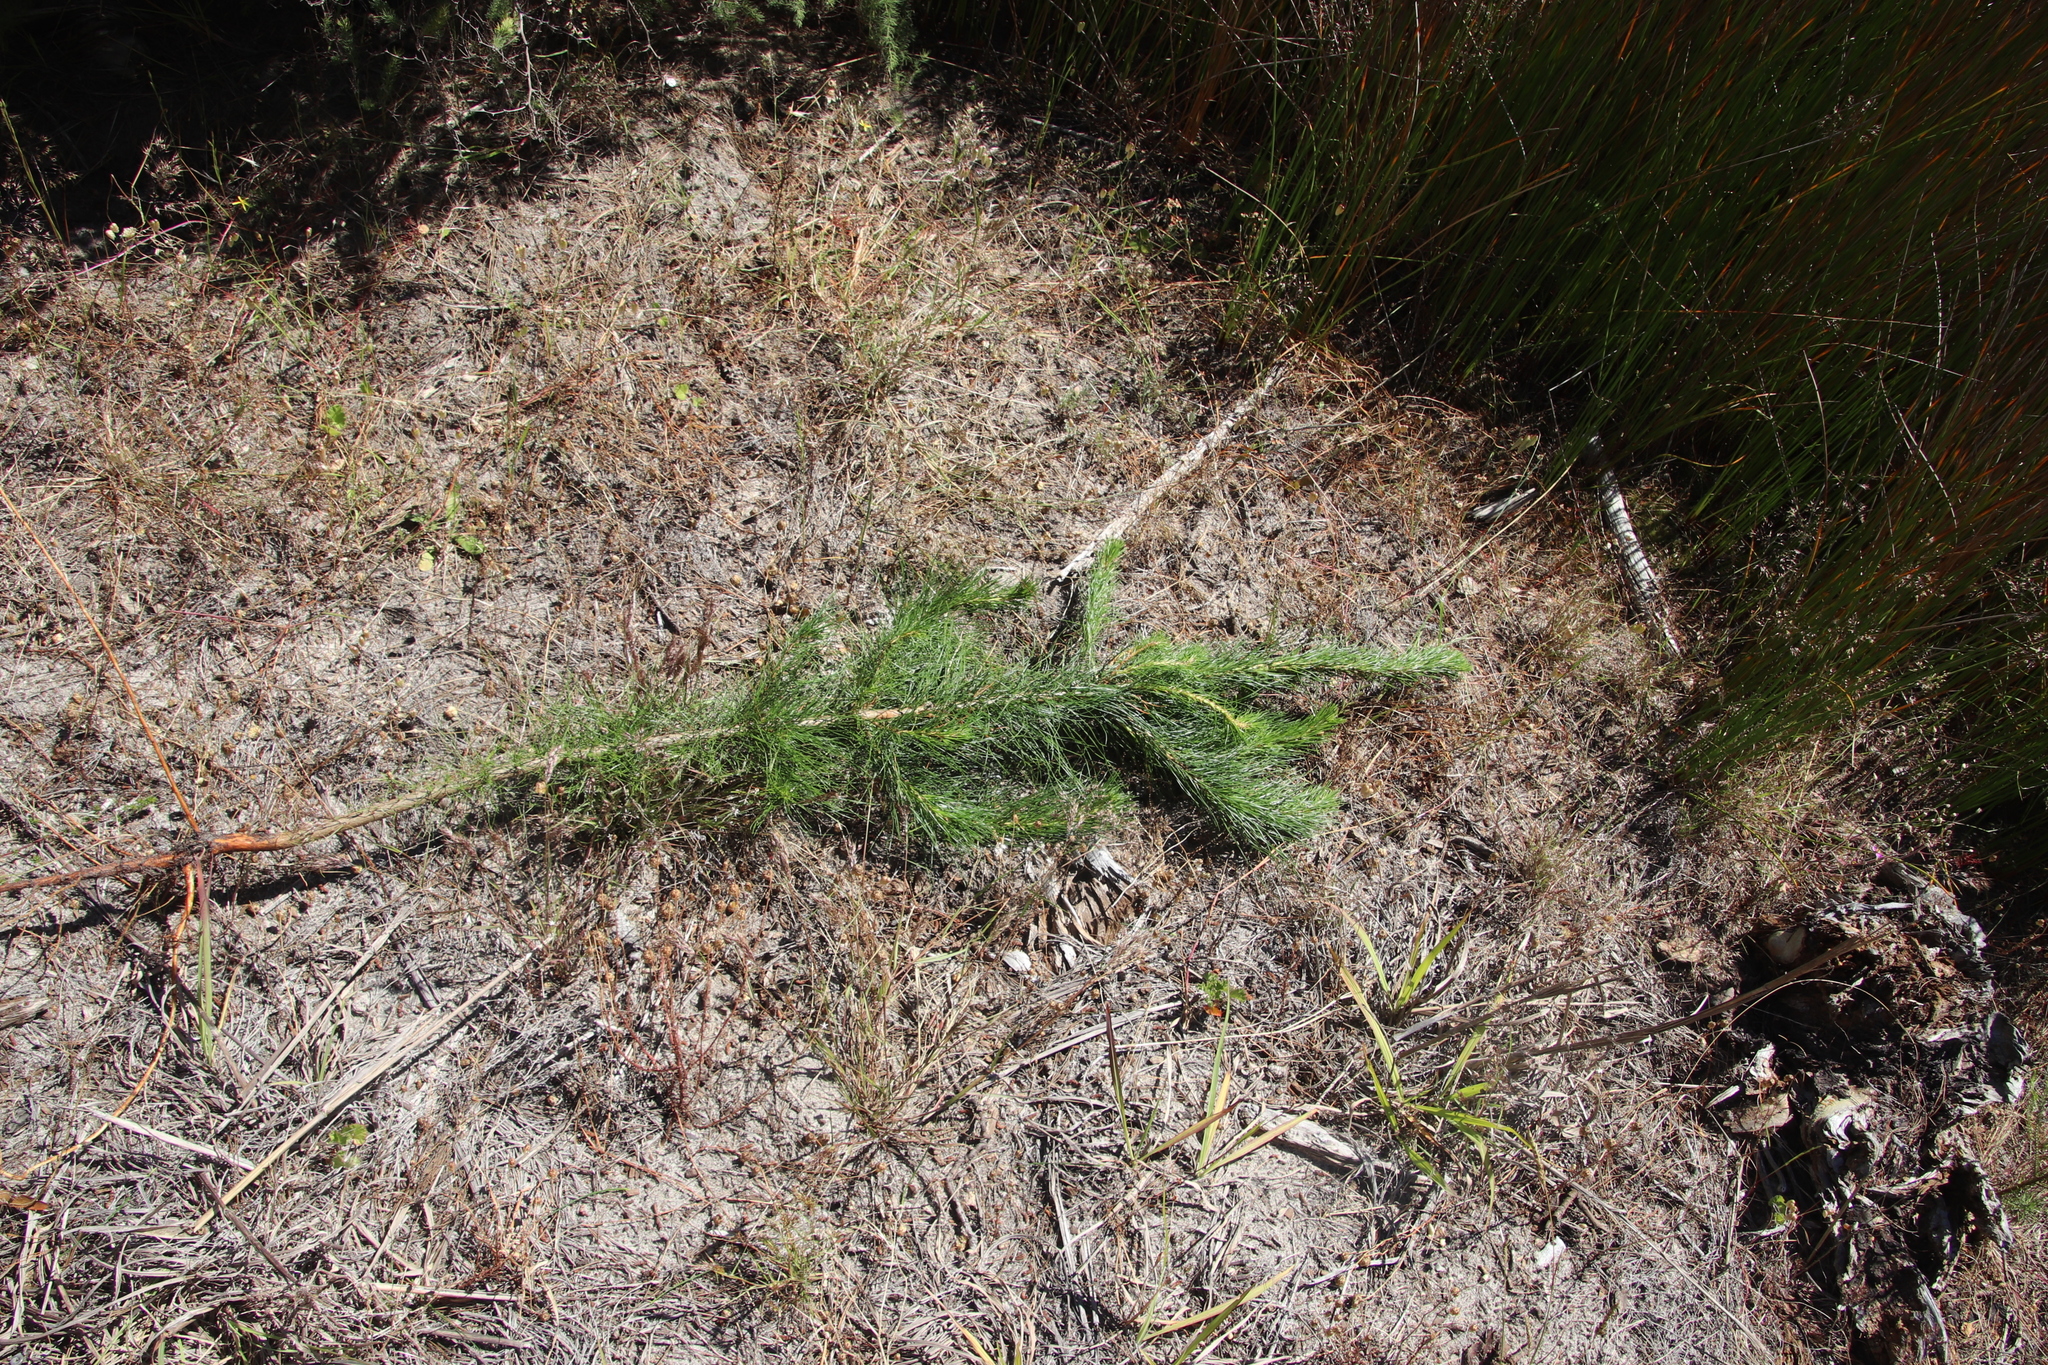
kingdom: Plantae
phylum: Tracheophyta
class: Pinopsida
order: Pinales
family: Pinaceae
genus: Pinus
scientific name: Pinus radiata
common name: Monterey pine
